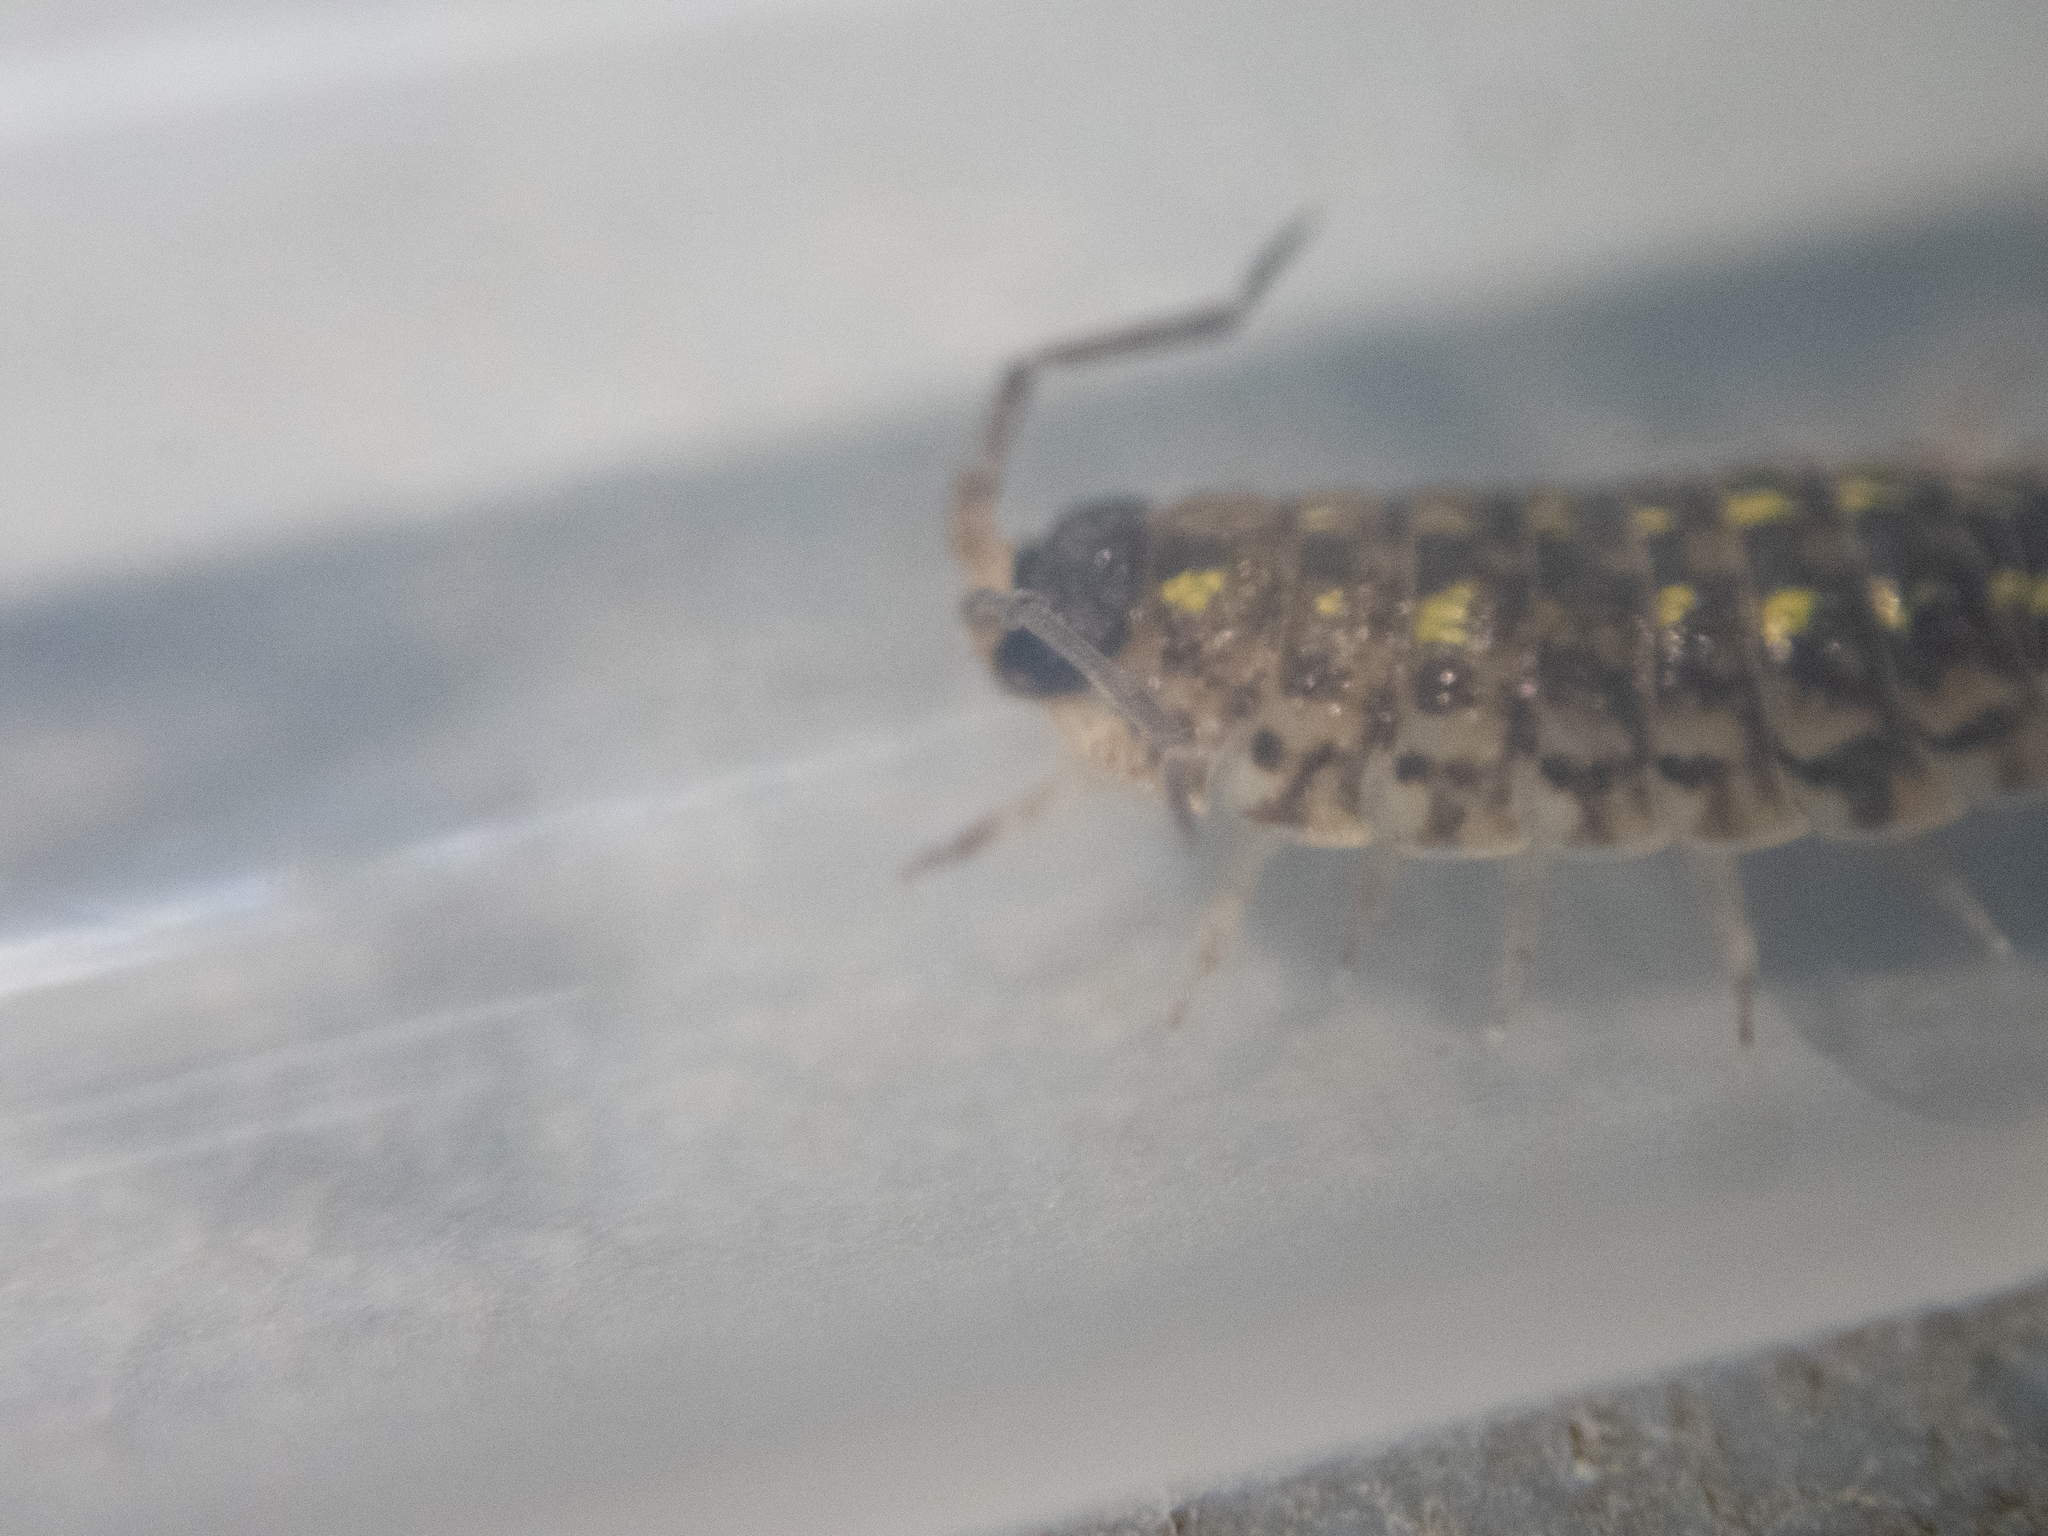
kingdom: Animalia
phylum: Arthropoda
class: Malacostraca
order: Isopoda
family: Porcellionidae
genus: Porcellio
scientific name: Porcellio spinicornis
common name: Painted woodlouse
